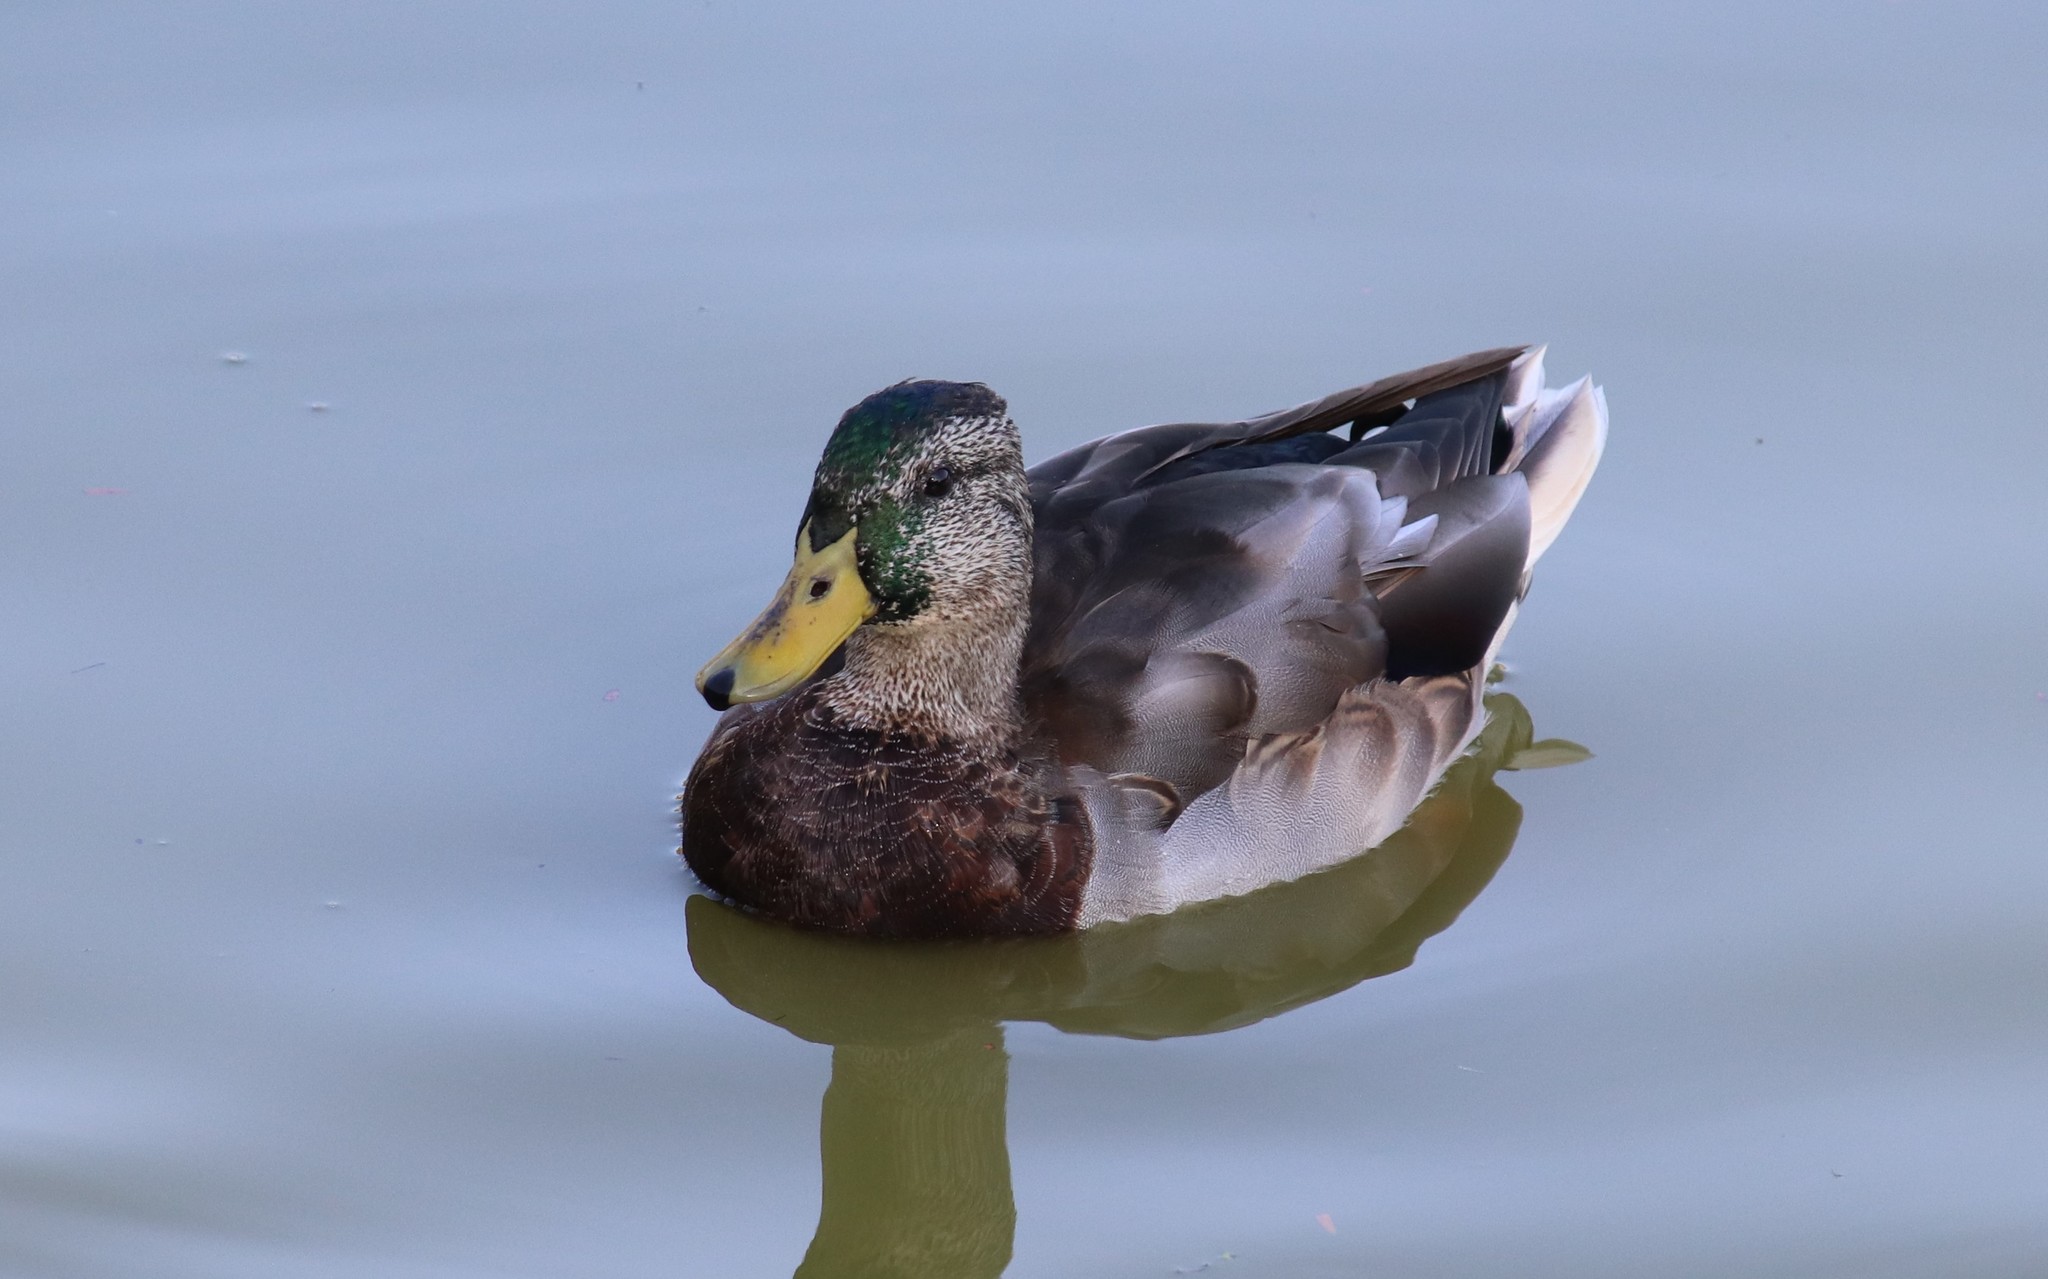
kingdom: Animalia
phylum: Chordata
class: Aves
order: Anseriformes
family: Anatidae
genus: Anas
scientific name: Anas platyrhynchos
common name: Mallard
